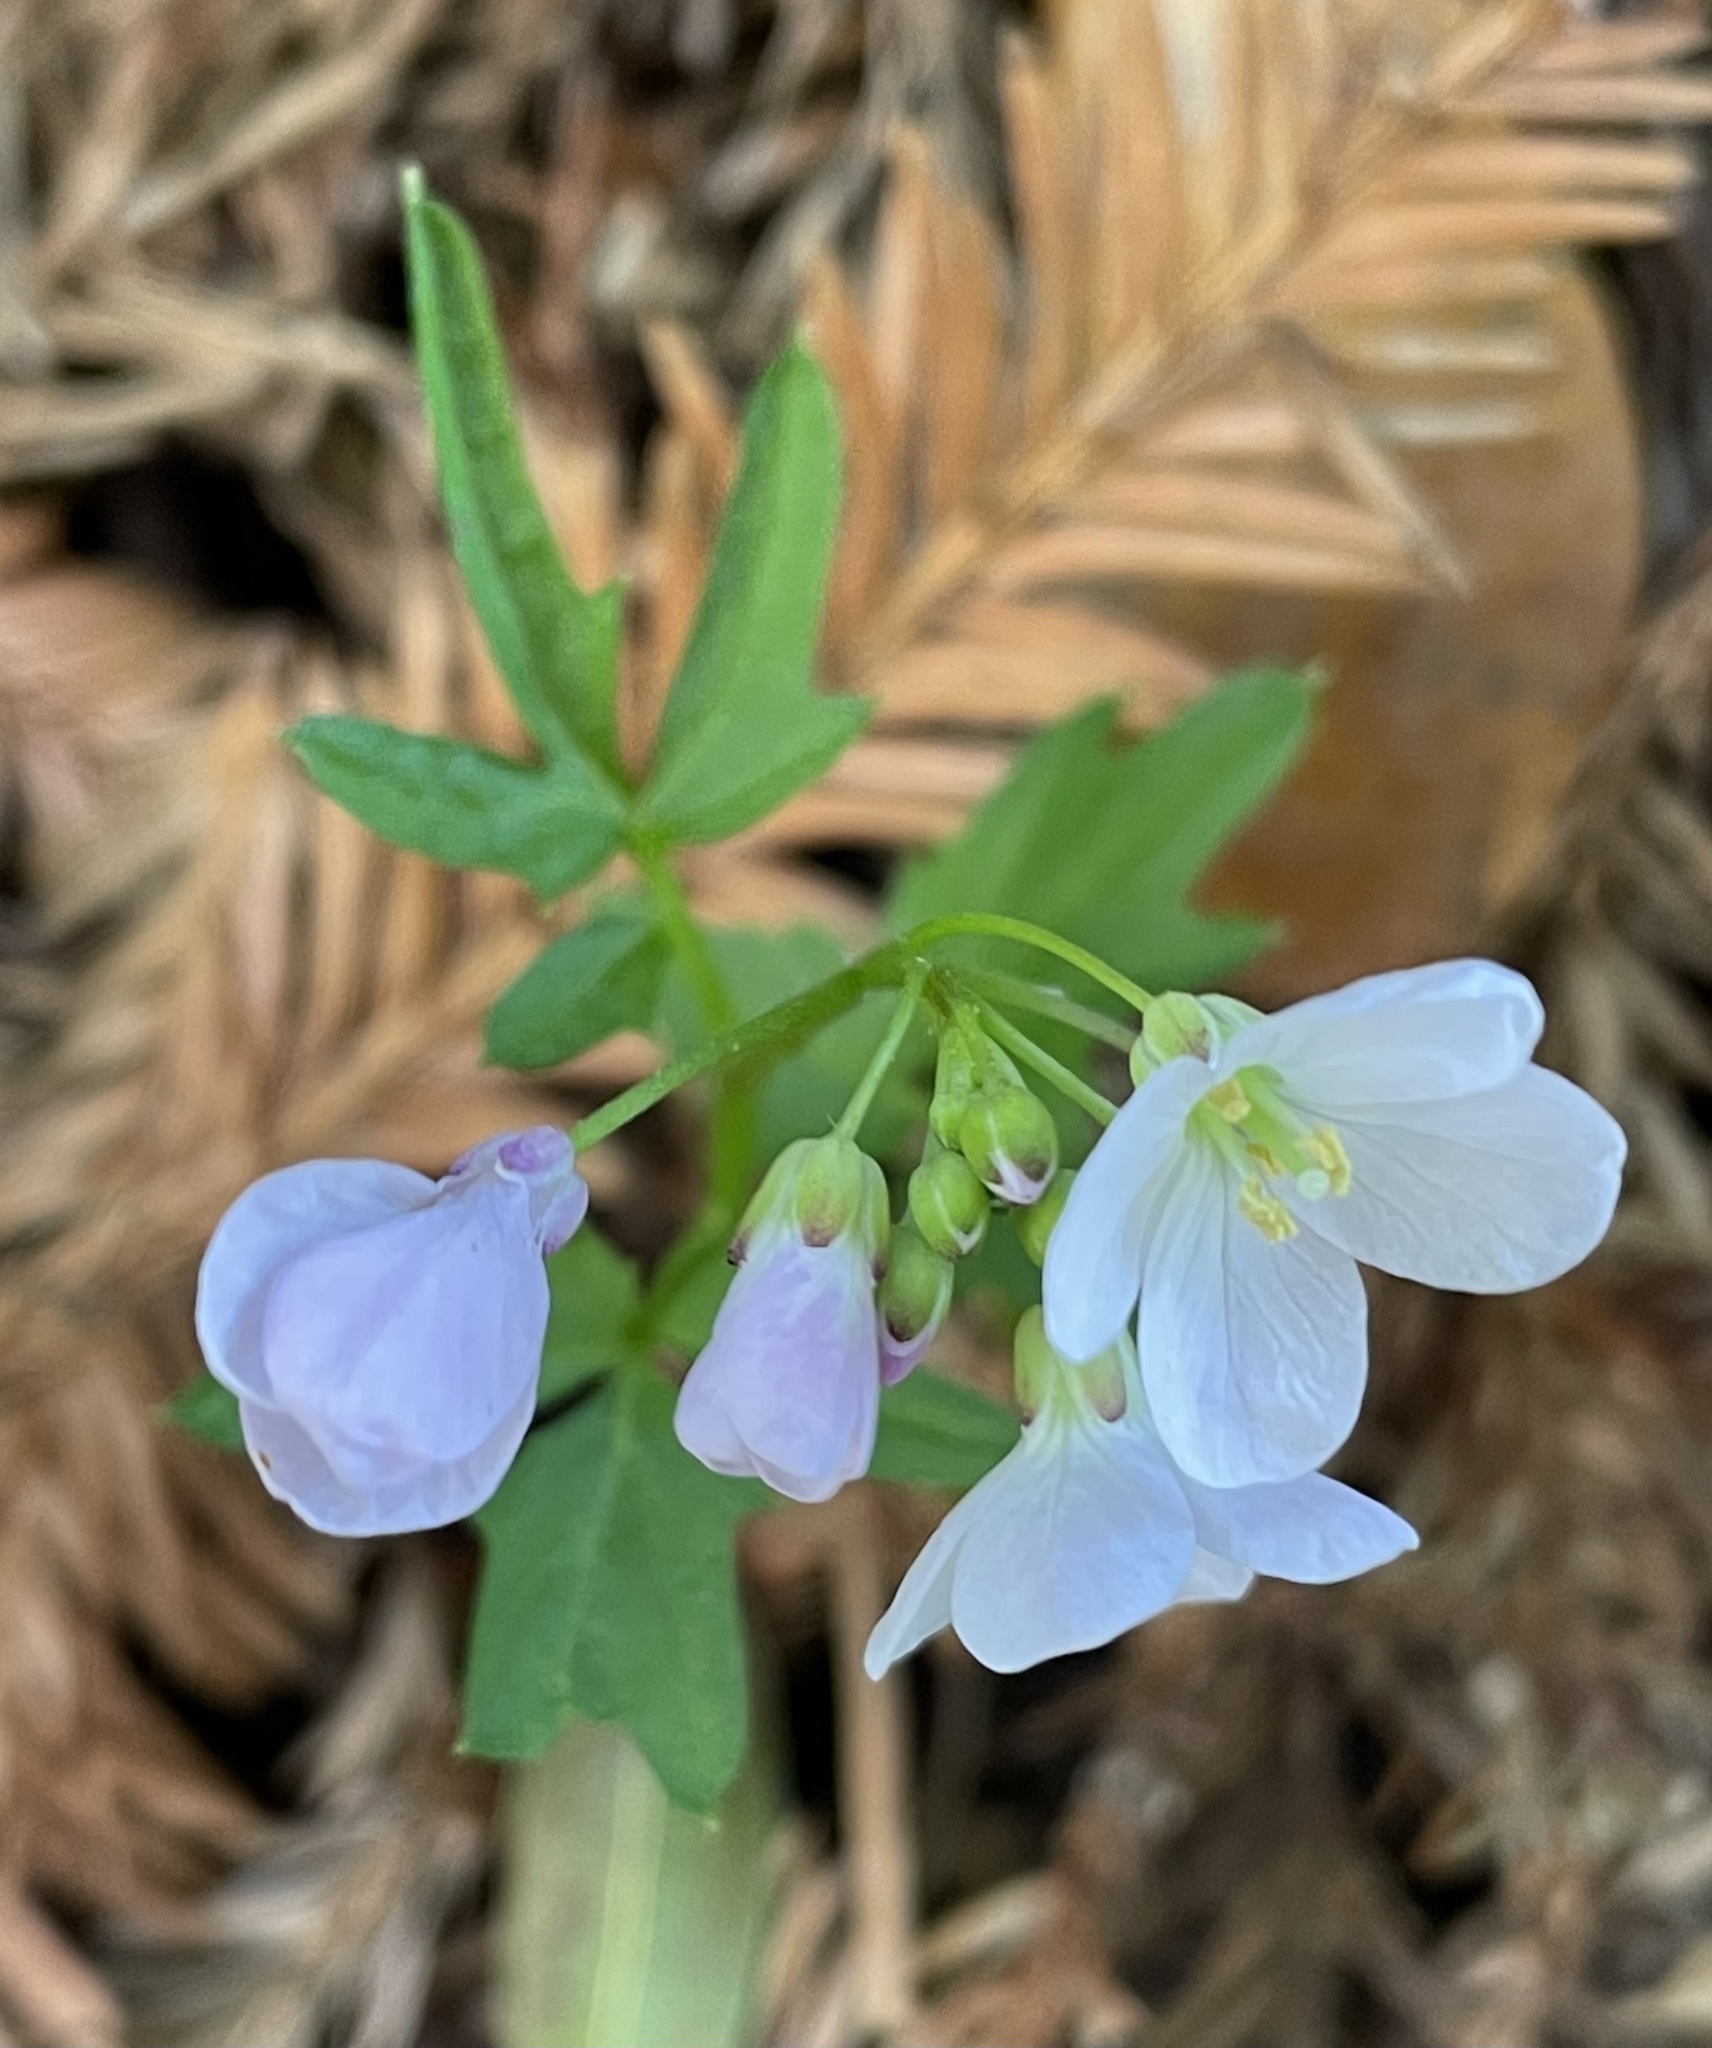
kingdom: Plantae
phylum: Tracheophyta
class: Magnoliopsida
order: Brassicales
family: Brassicaceae
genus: Cardamine
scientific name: Cardamine californica
